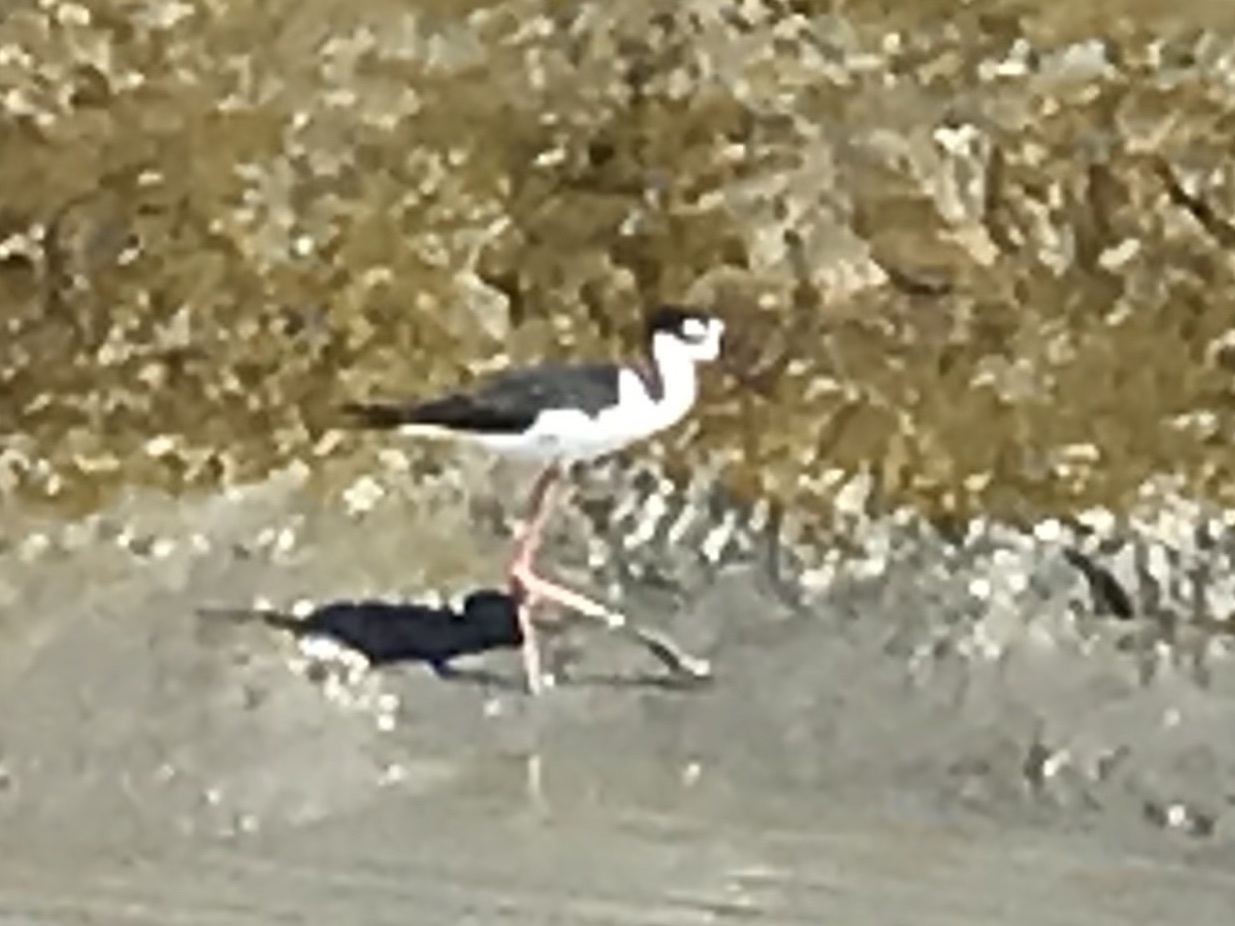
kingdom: Animalia
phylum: Chordata
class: Aves
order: Charadriiformes
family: Recurvirostridae
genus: Himantopus
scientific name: Himantopus mexicanus
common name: Black-necked stilt
